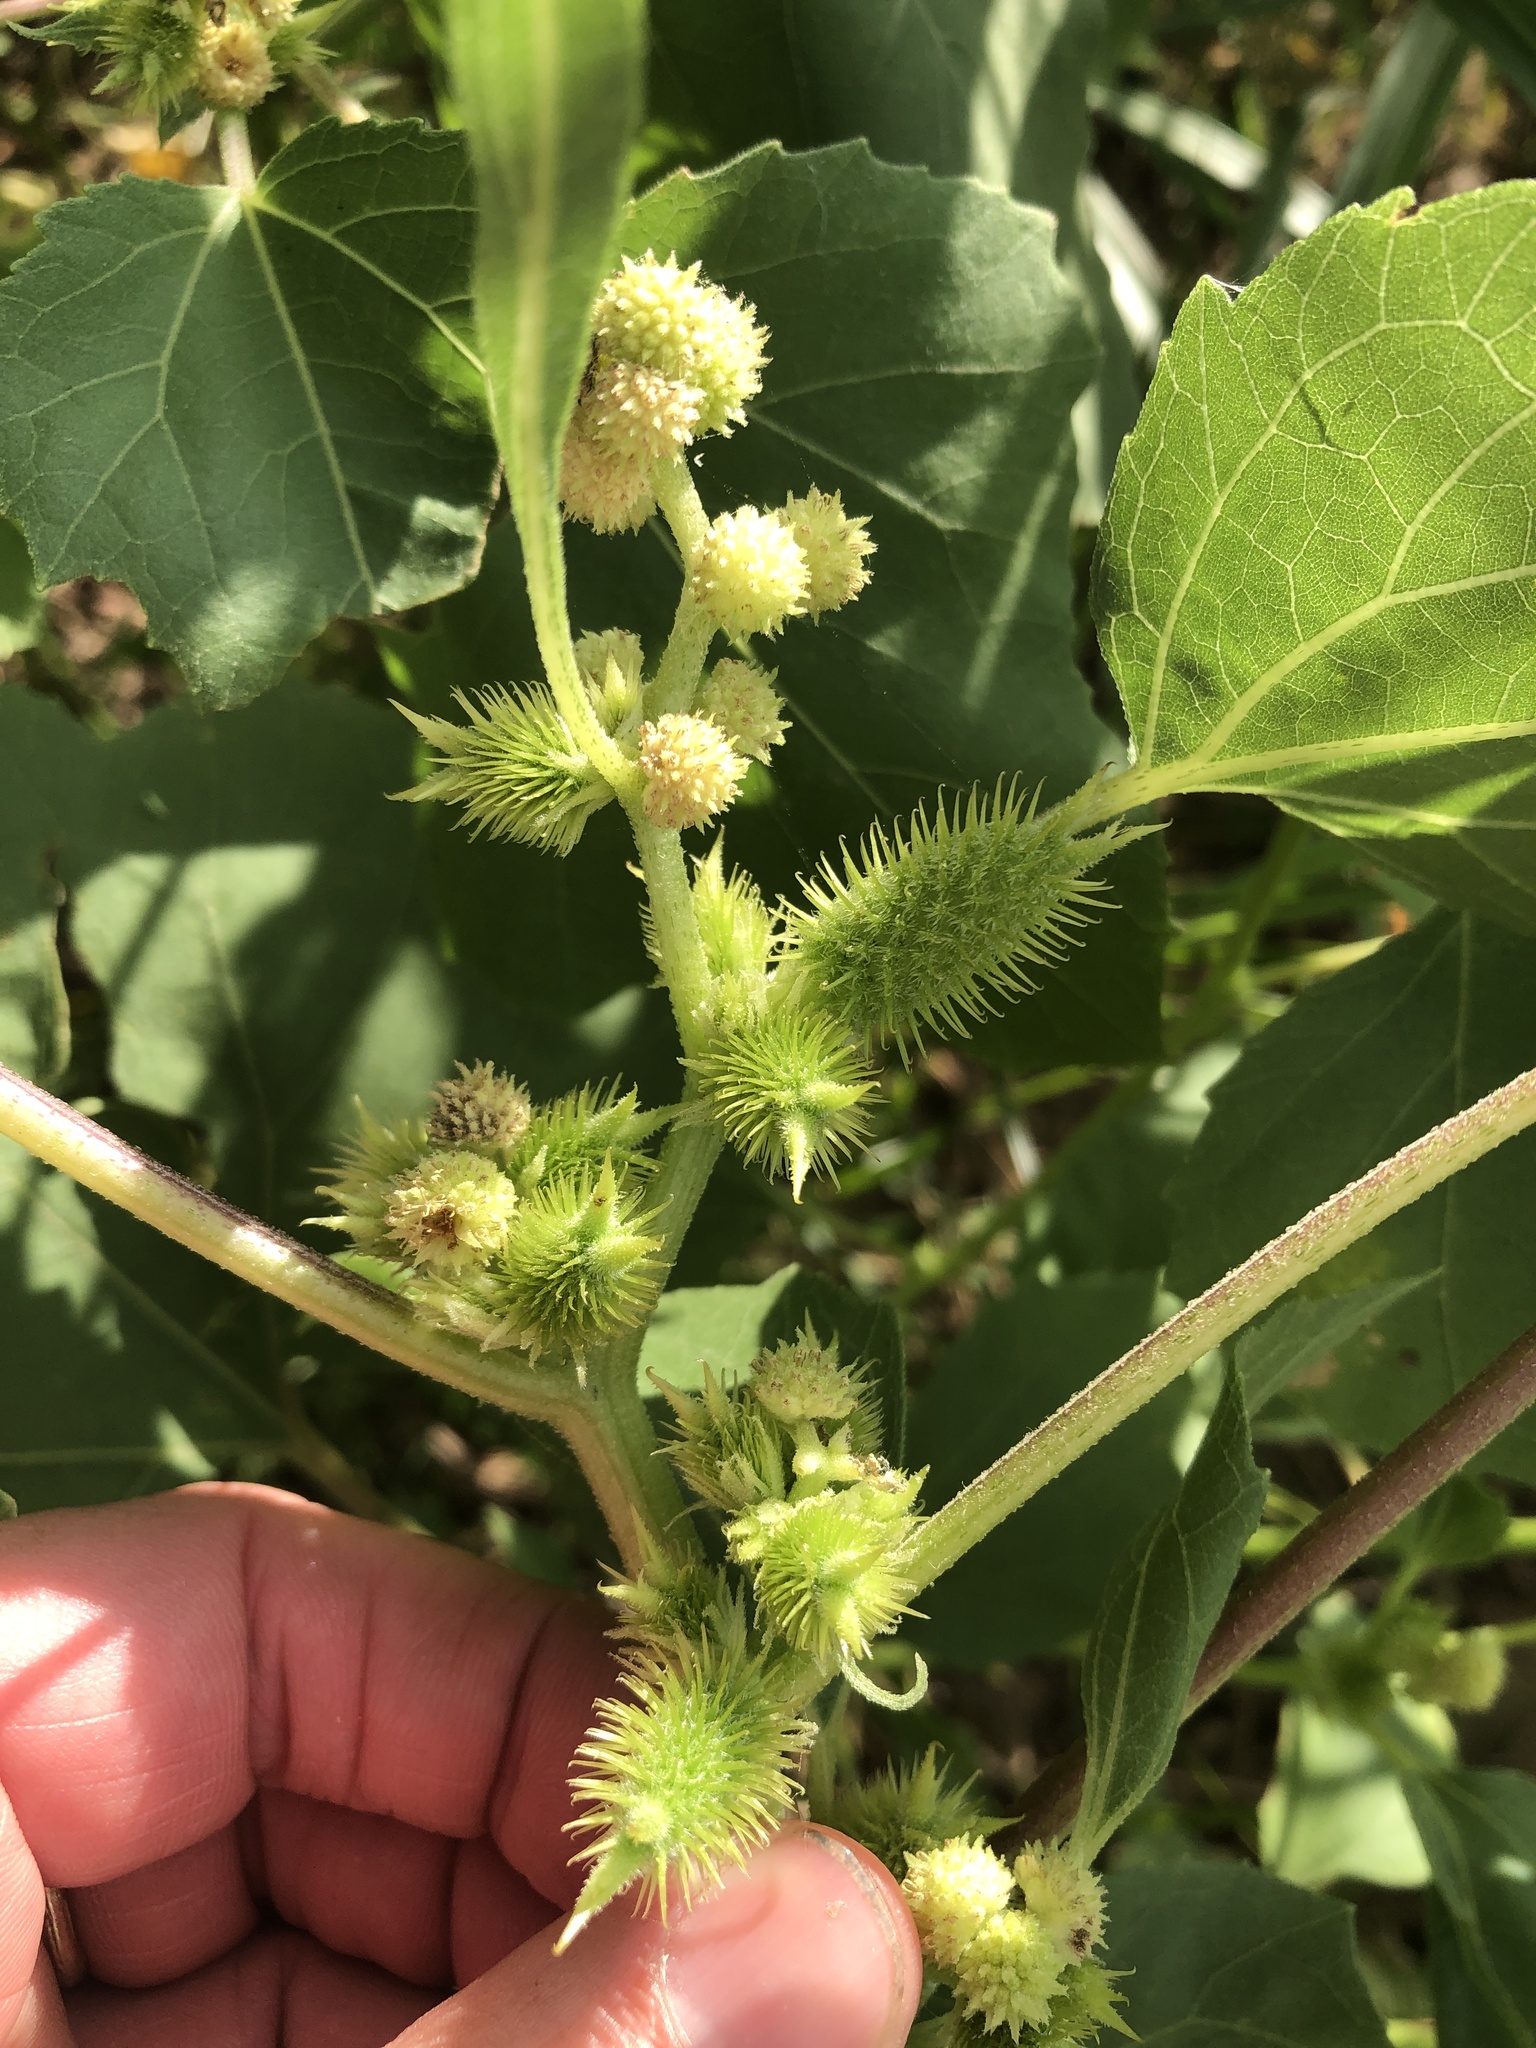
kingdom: Plantae
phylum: Tracheophyta
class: Magnoliopsida
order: Asterales
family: Asteraceae
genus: Xanthium
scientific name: Xanthium strumarium
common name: Rough cocklebur
